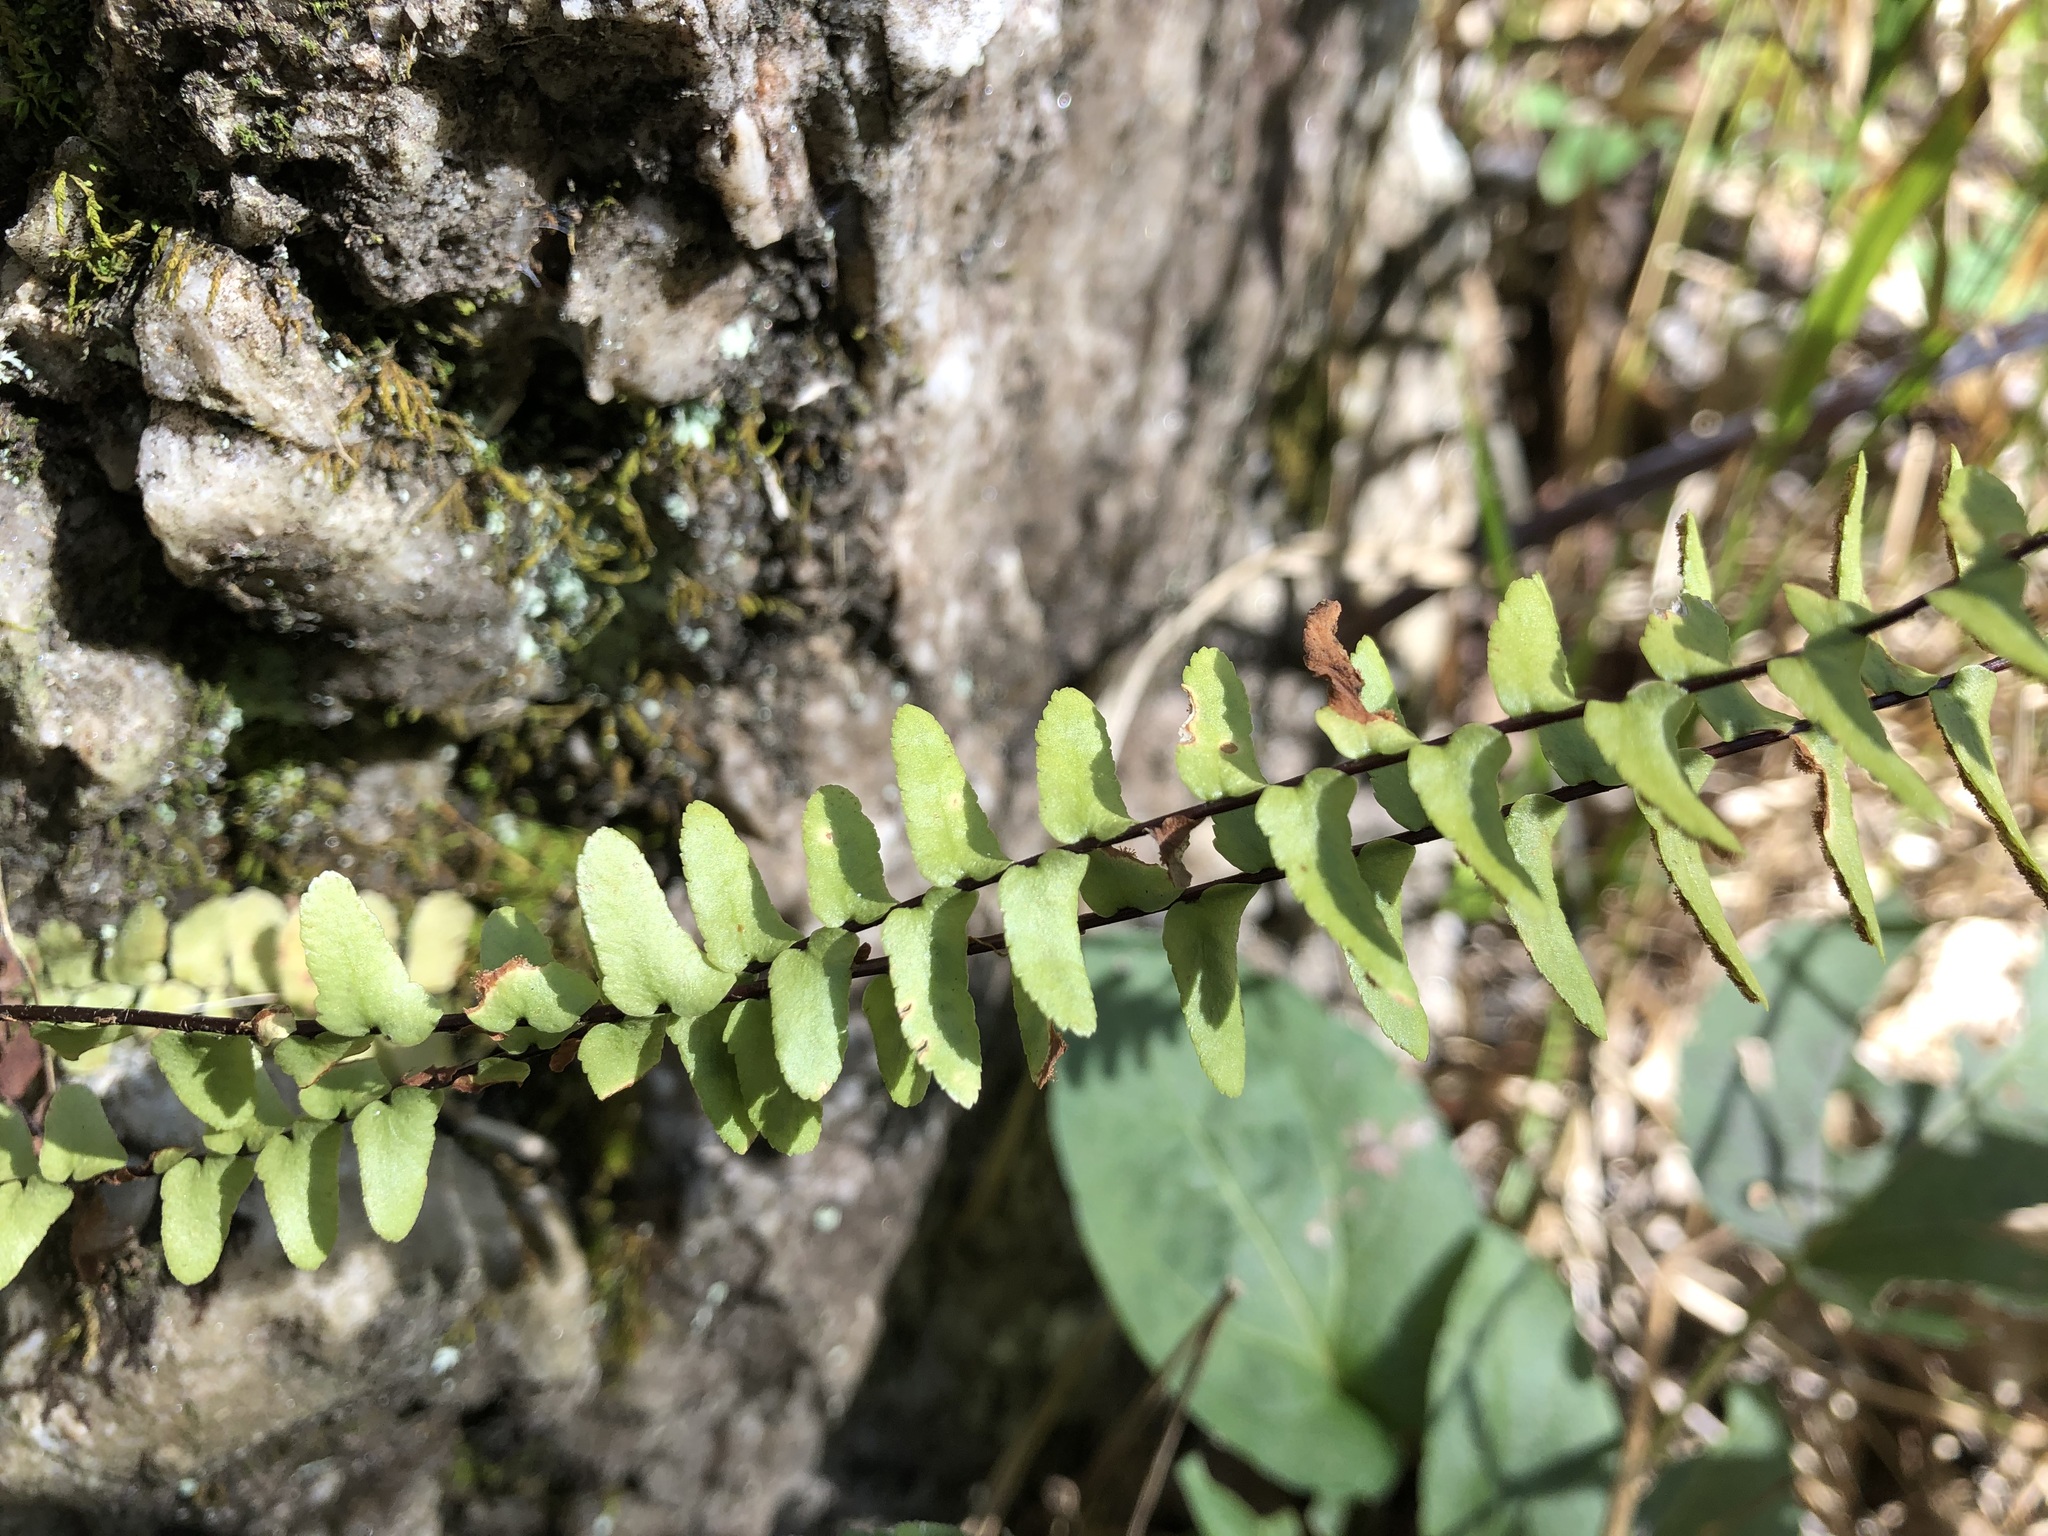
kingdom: Plantae
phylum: Tracheophyta
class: Polypodiopsida
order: Polypodiales
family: Aspleniaceae
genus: Asplenium
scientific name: Asplenium platyneuron
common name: Ebony spleenwort
